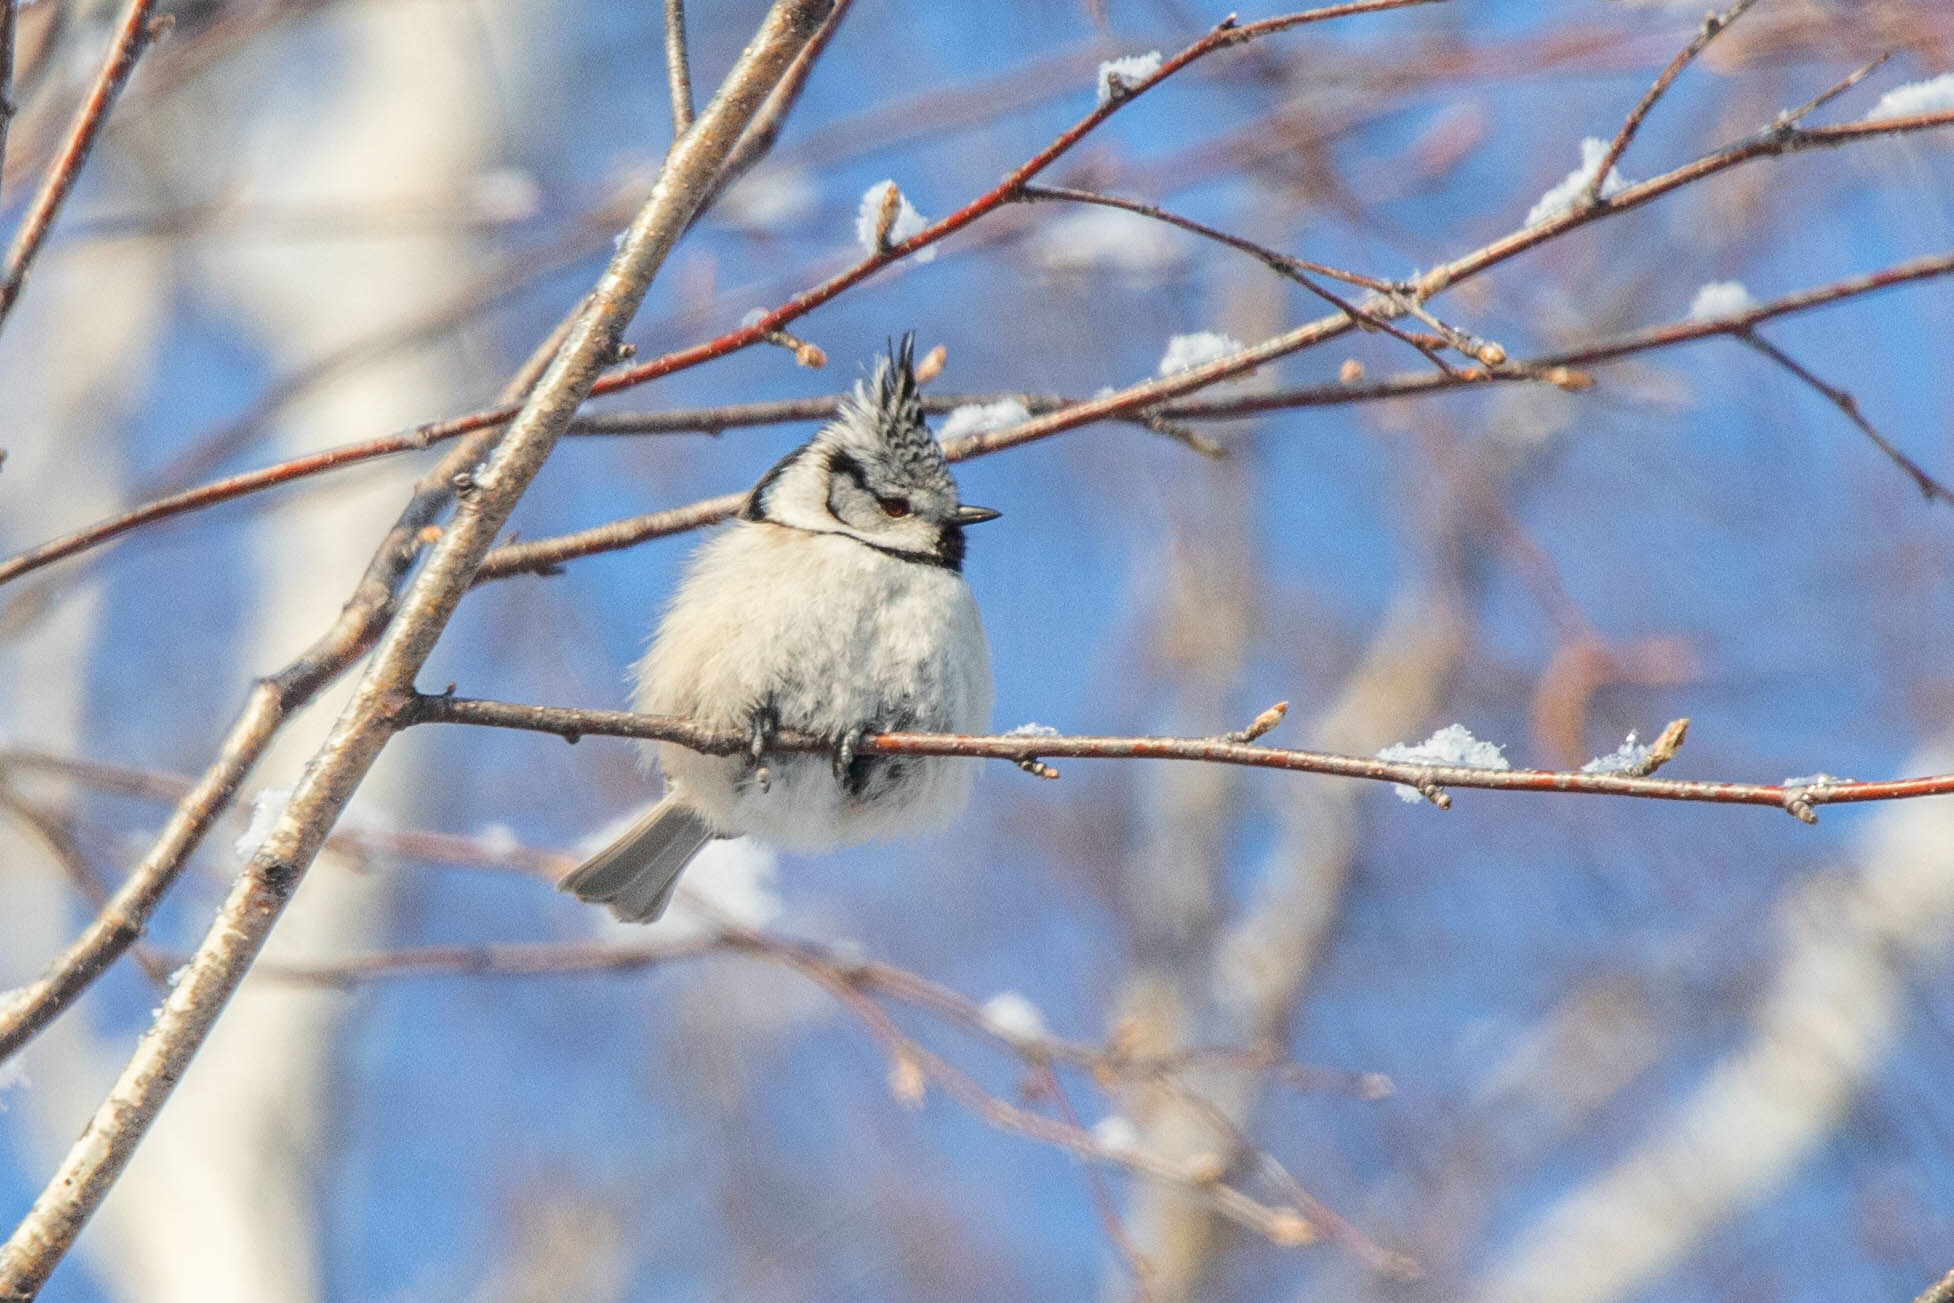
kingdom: Animalia
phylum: Chordata
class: Aves
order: Passeriformes
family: Paridae
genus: Lophophanes
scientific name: Lophophanes cristatus
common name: European crested tit
